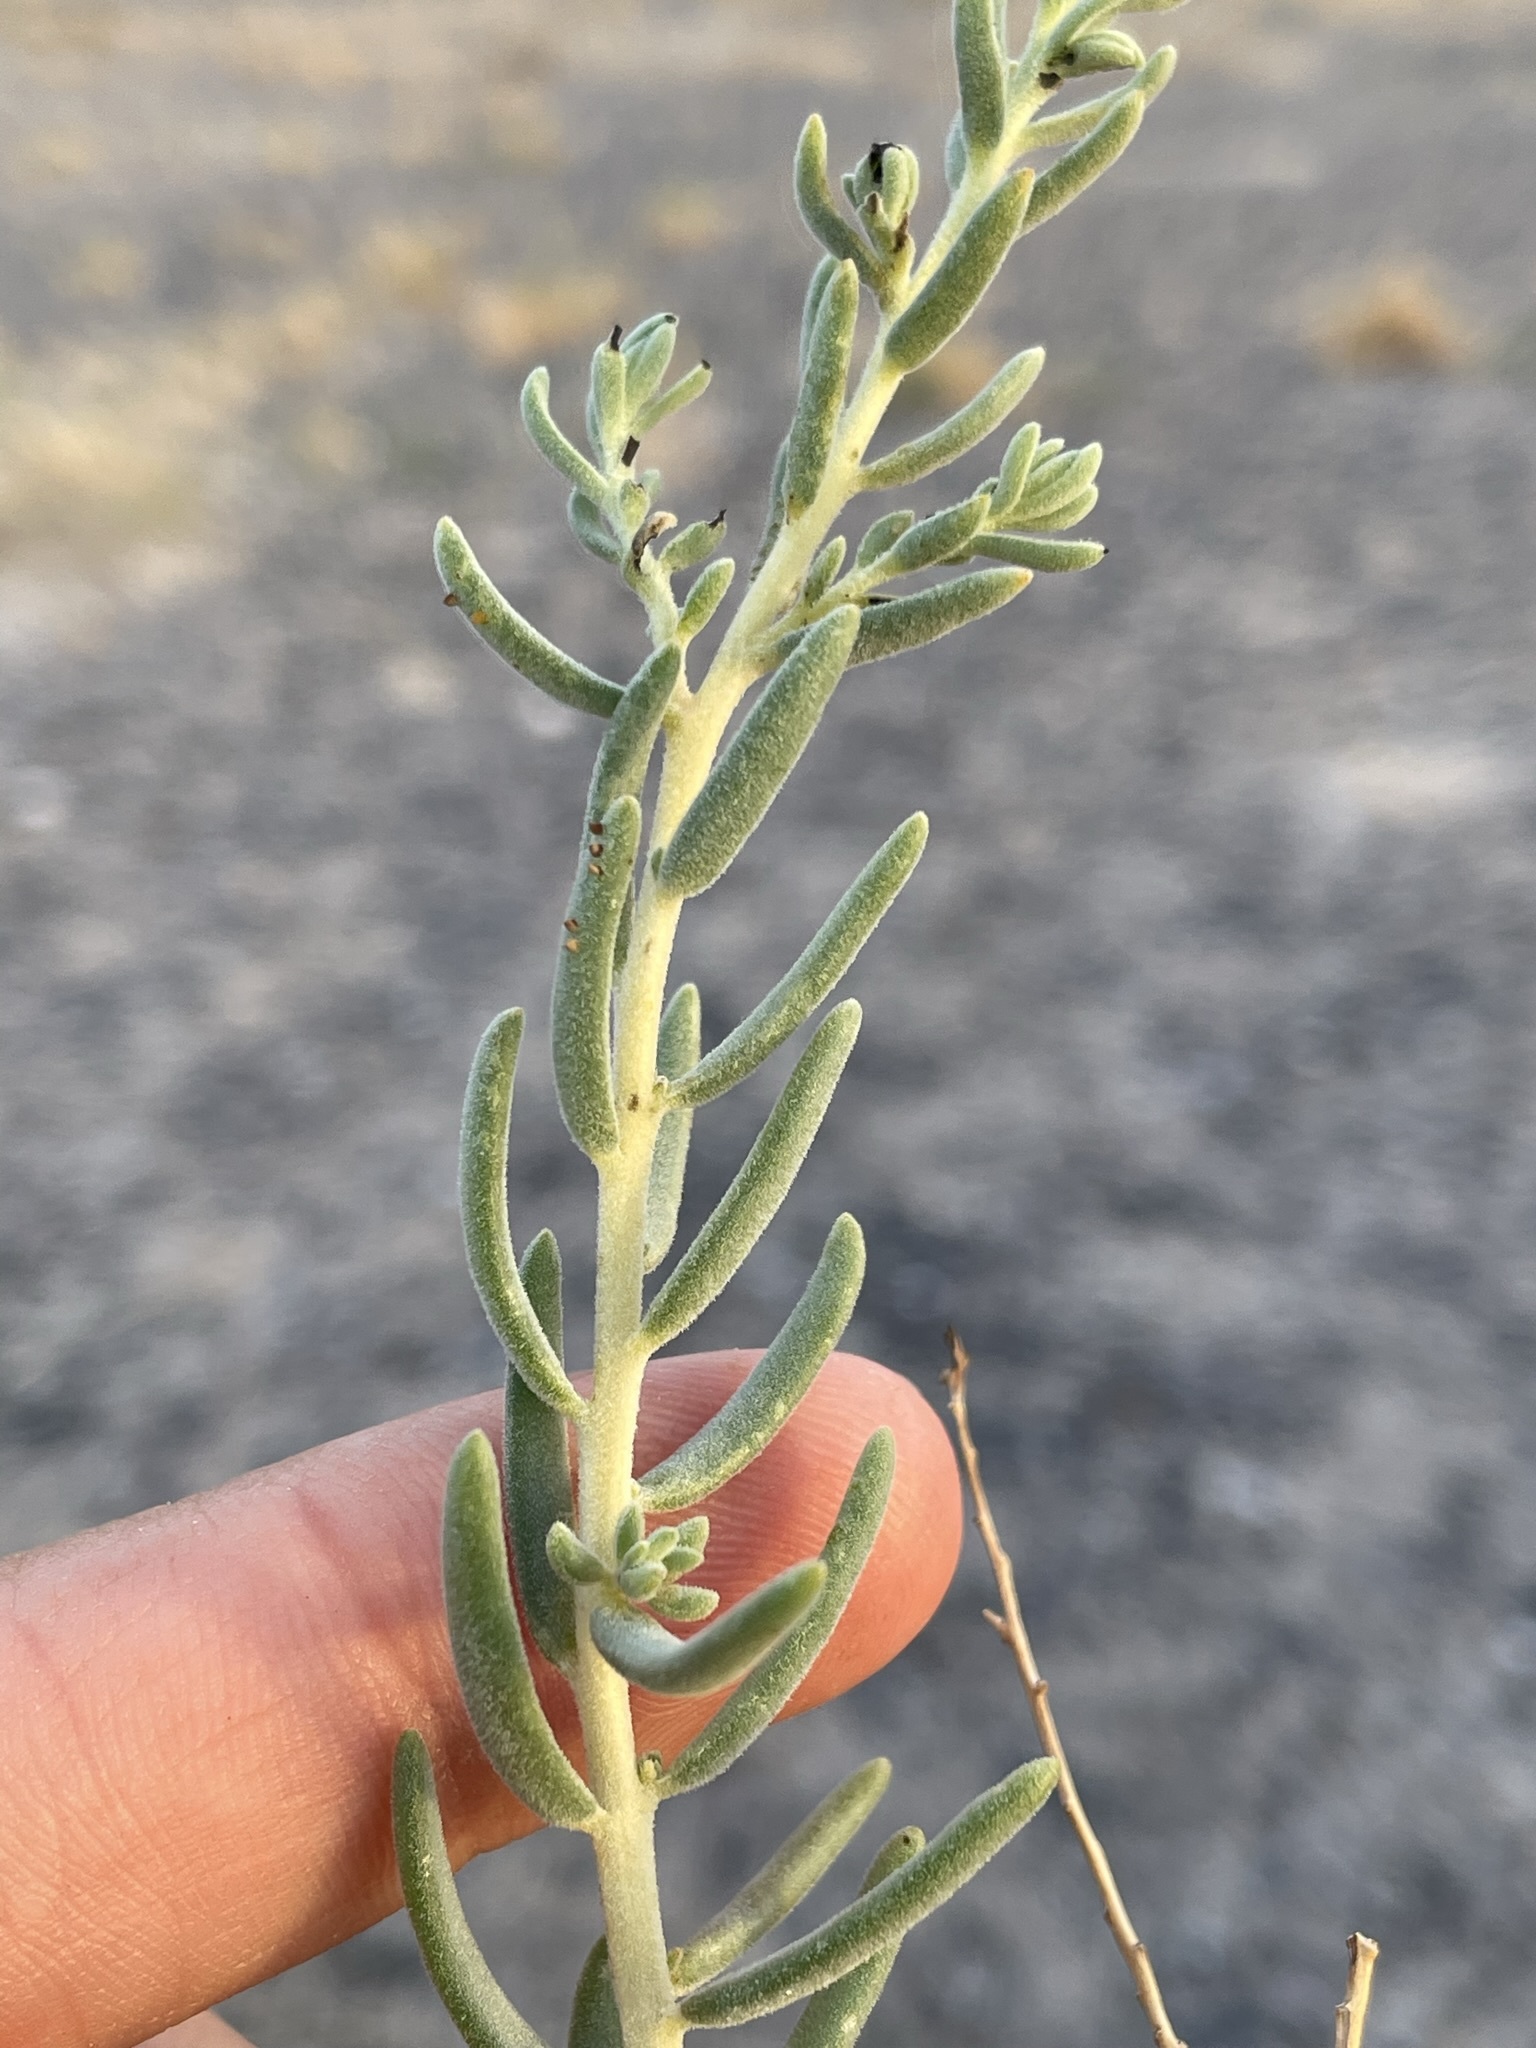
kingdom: Plantae
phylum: Tracheophyta
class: Magnoliopsida
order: Caryophyllales
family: Amaranthaceae
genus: Suaeda
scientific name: Suaeda nigra
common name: Bush seepweed
